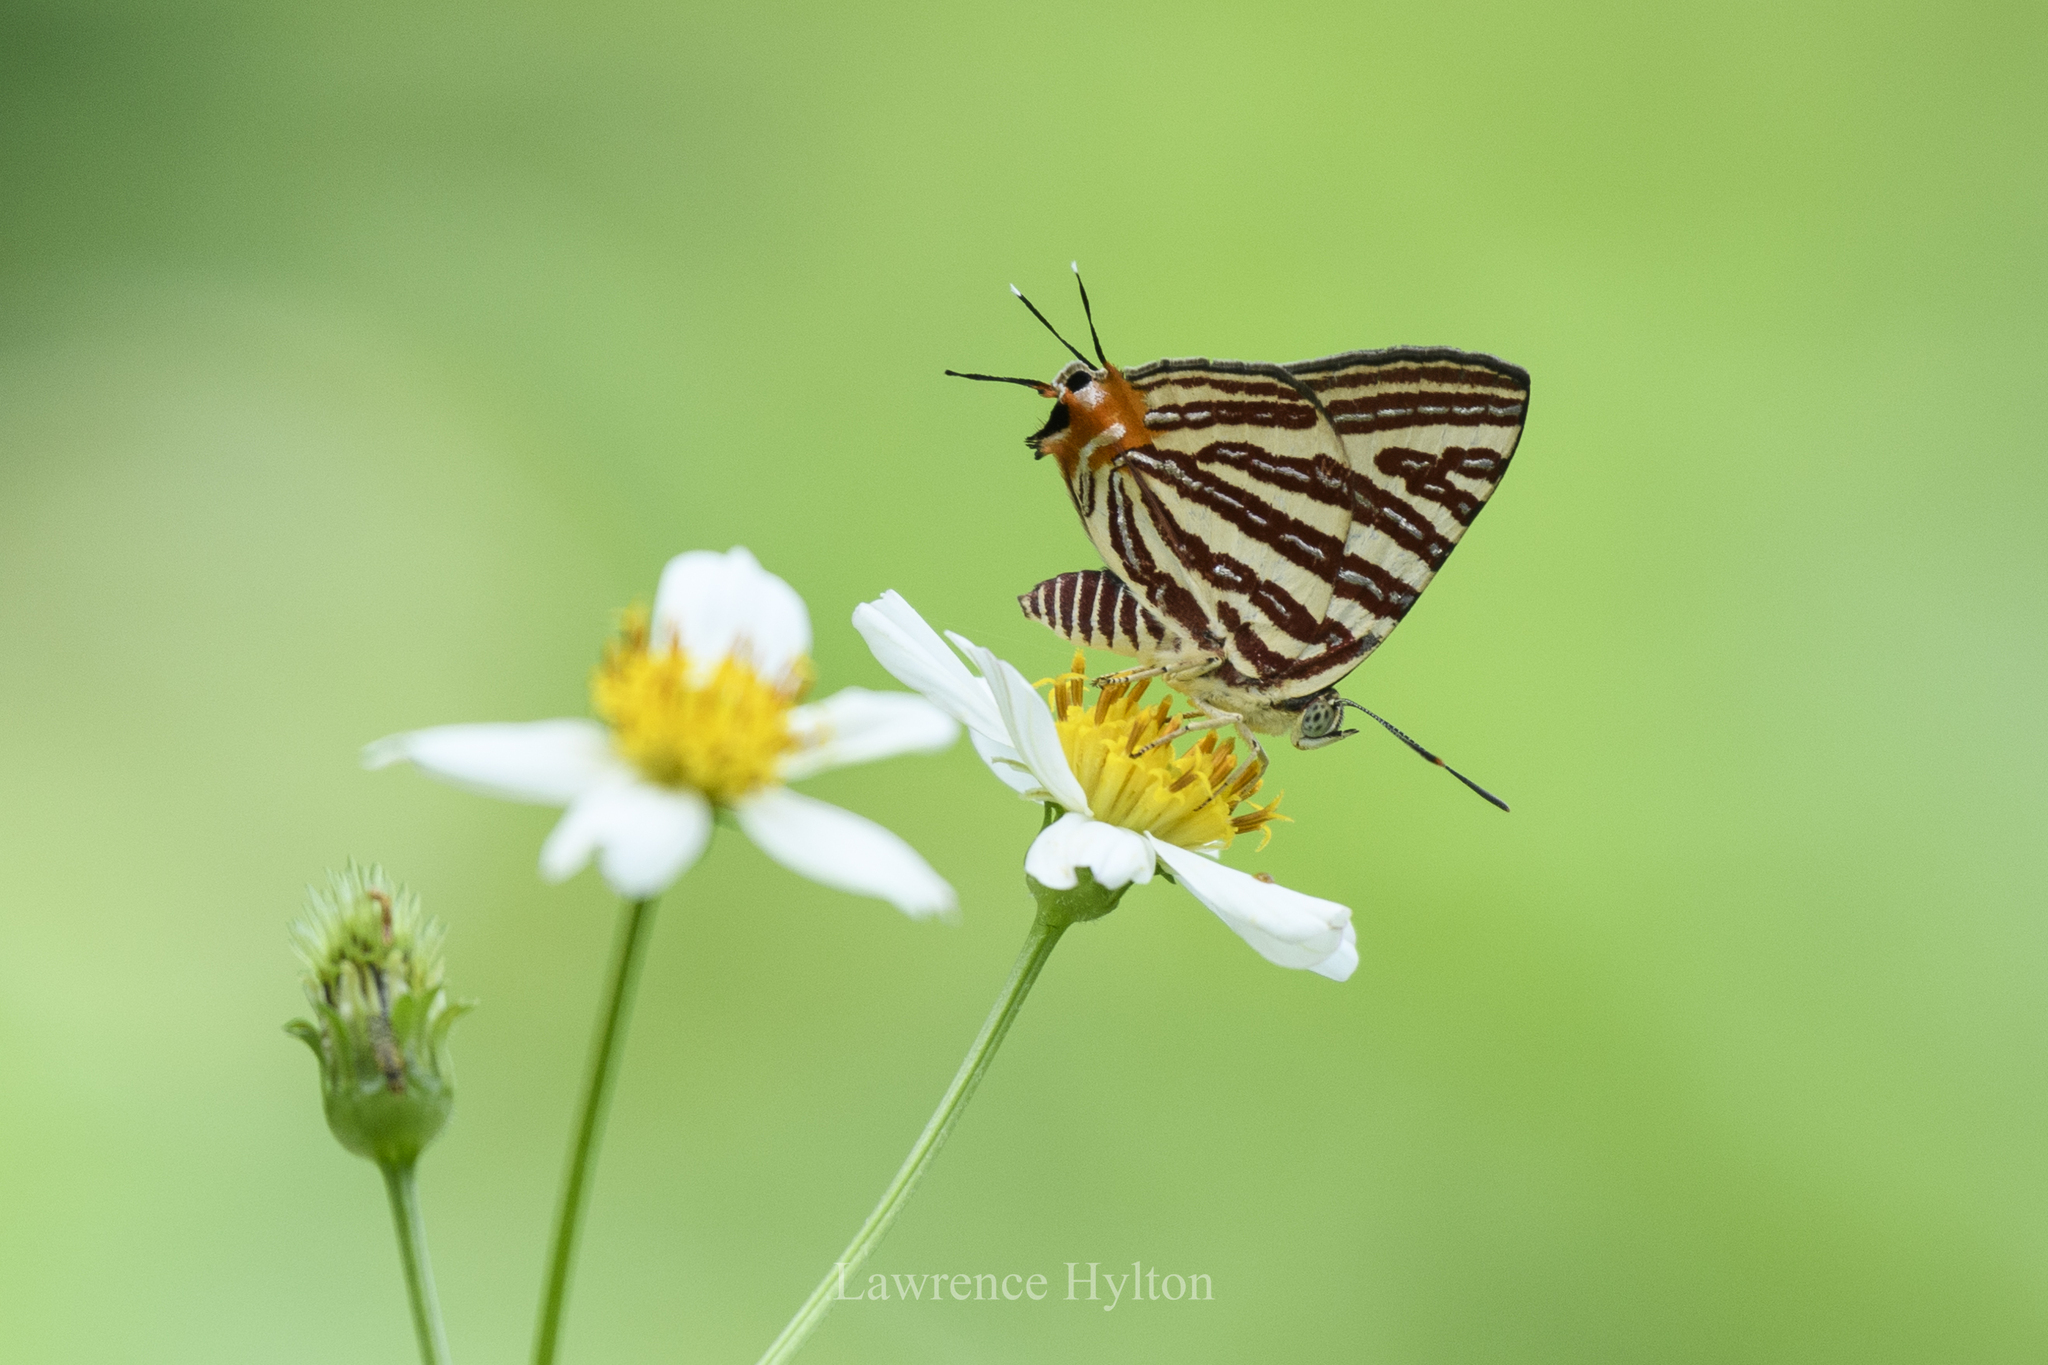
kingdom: Animalia
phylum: Arthropoda
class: Insecta
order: Lepidoptera
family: Lycaenidae
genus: Cigaritis
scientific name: Cigaritis lohita
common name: Long-banded silverline
